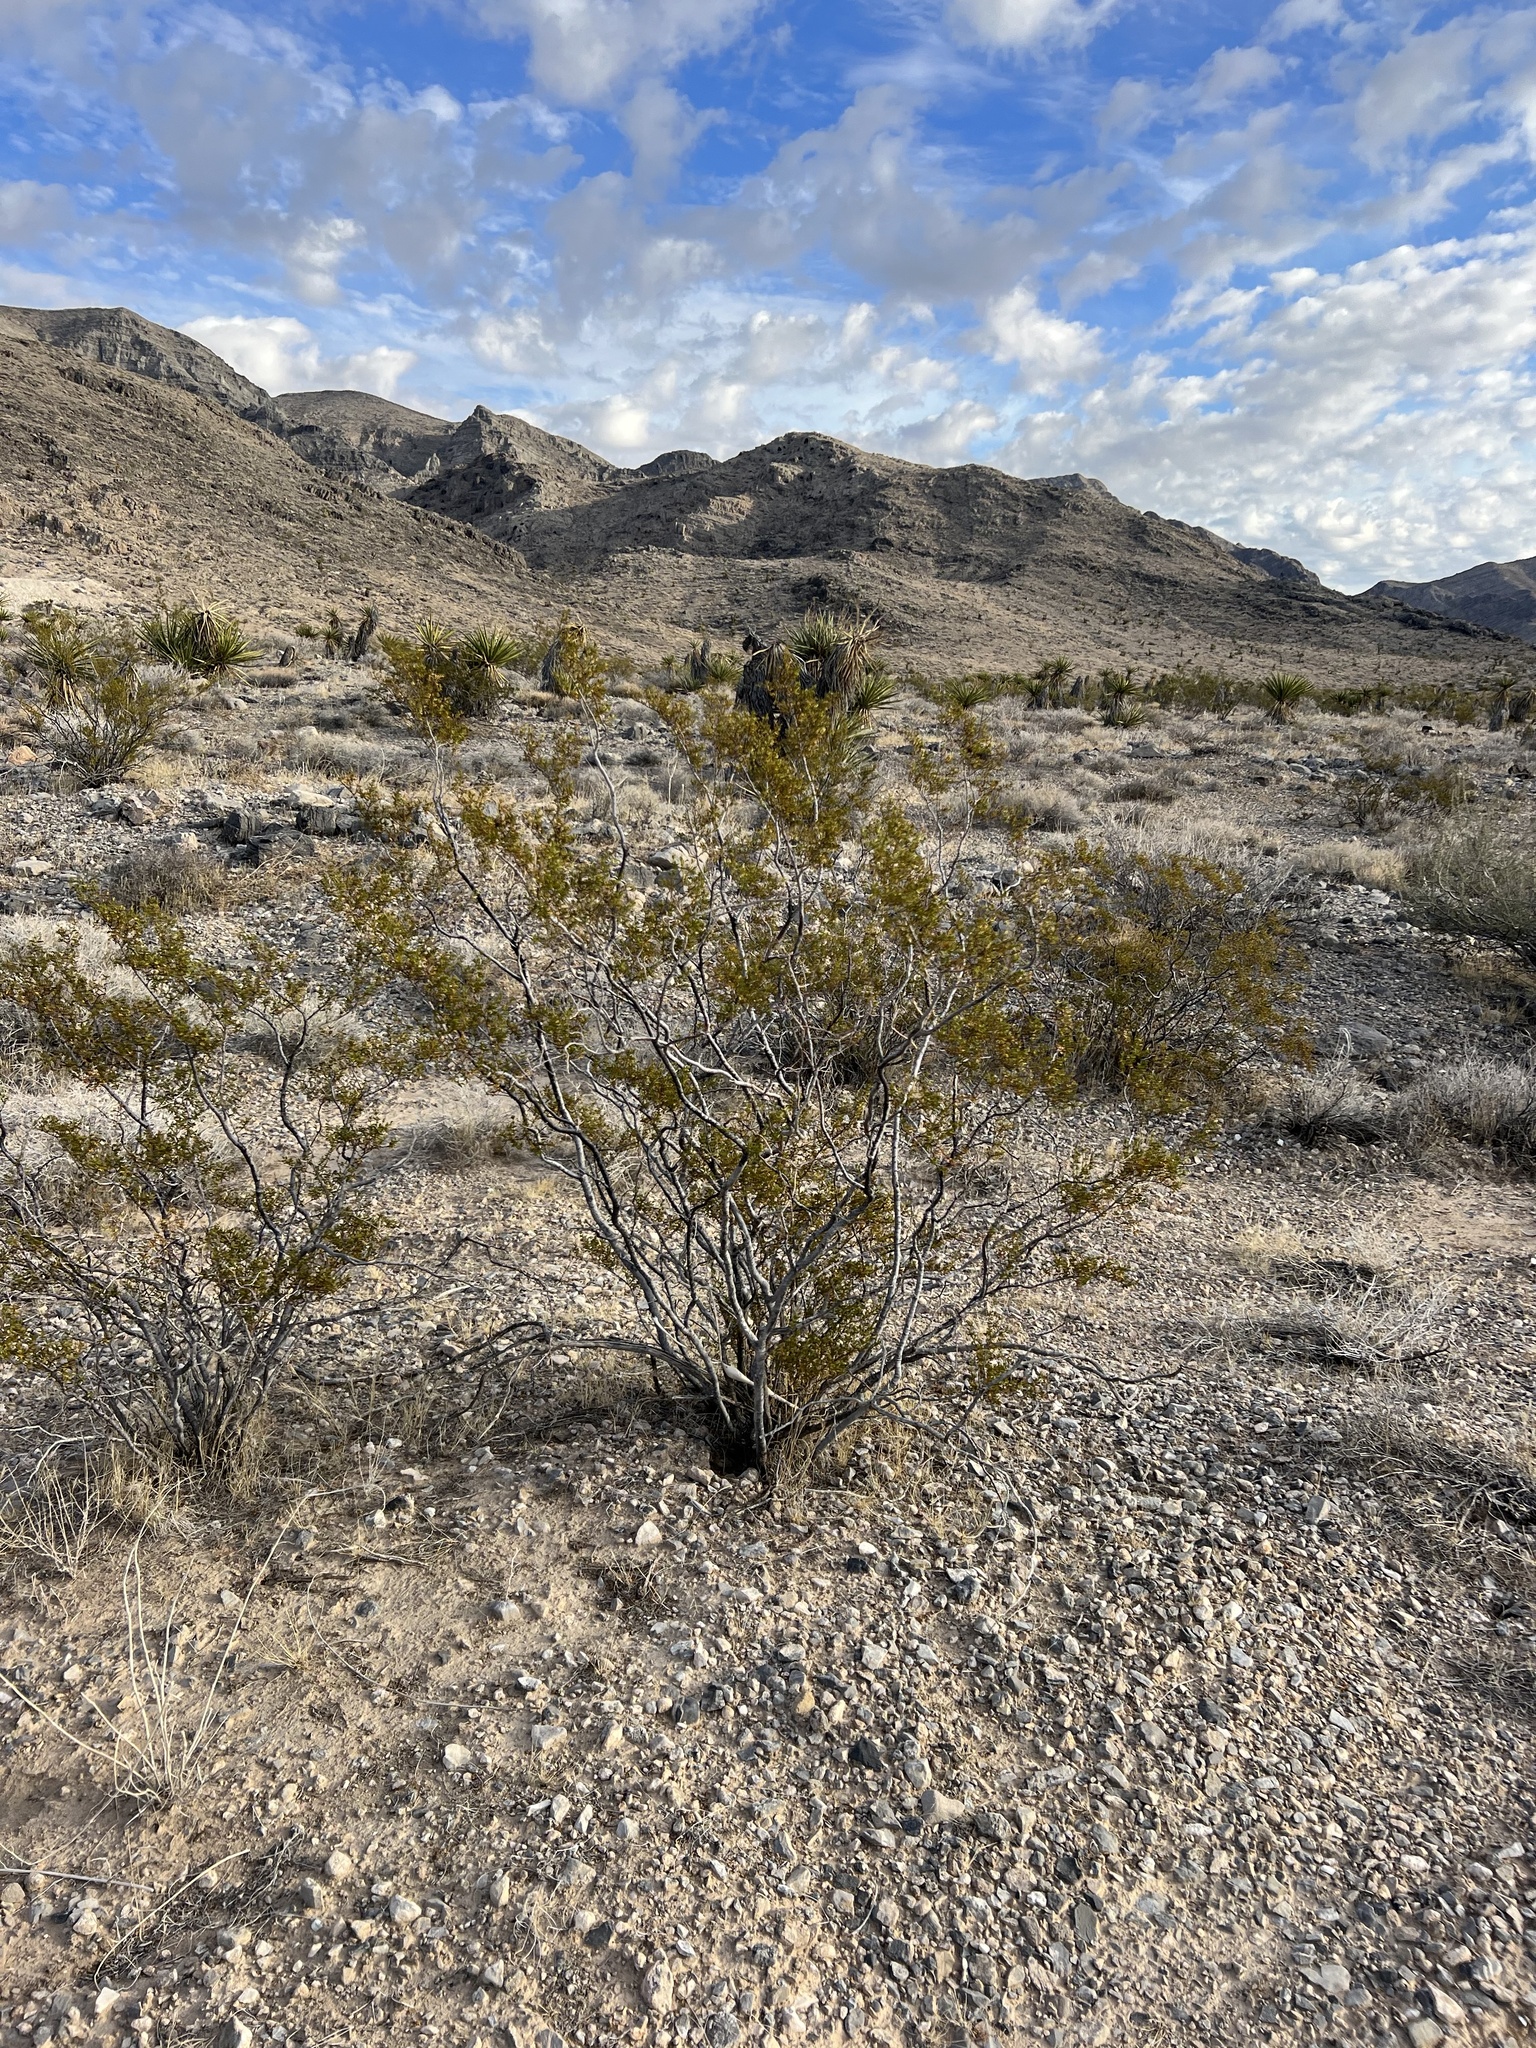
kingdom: Plantae
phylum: Tracheophyta
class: Magnoliopsida
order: Zygophyllales
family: Zygophyllaceae
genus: Larrea
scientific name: Larrea tridentata
